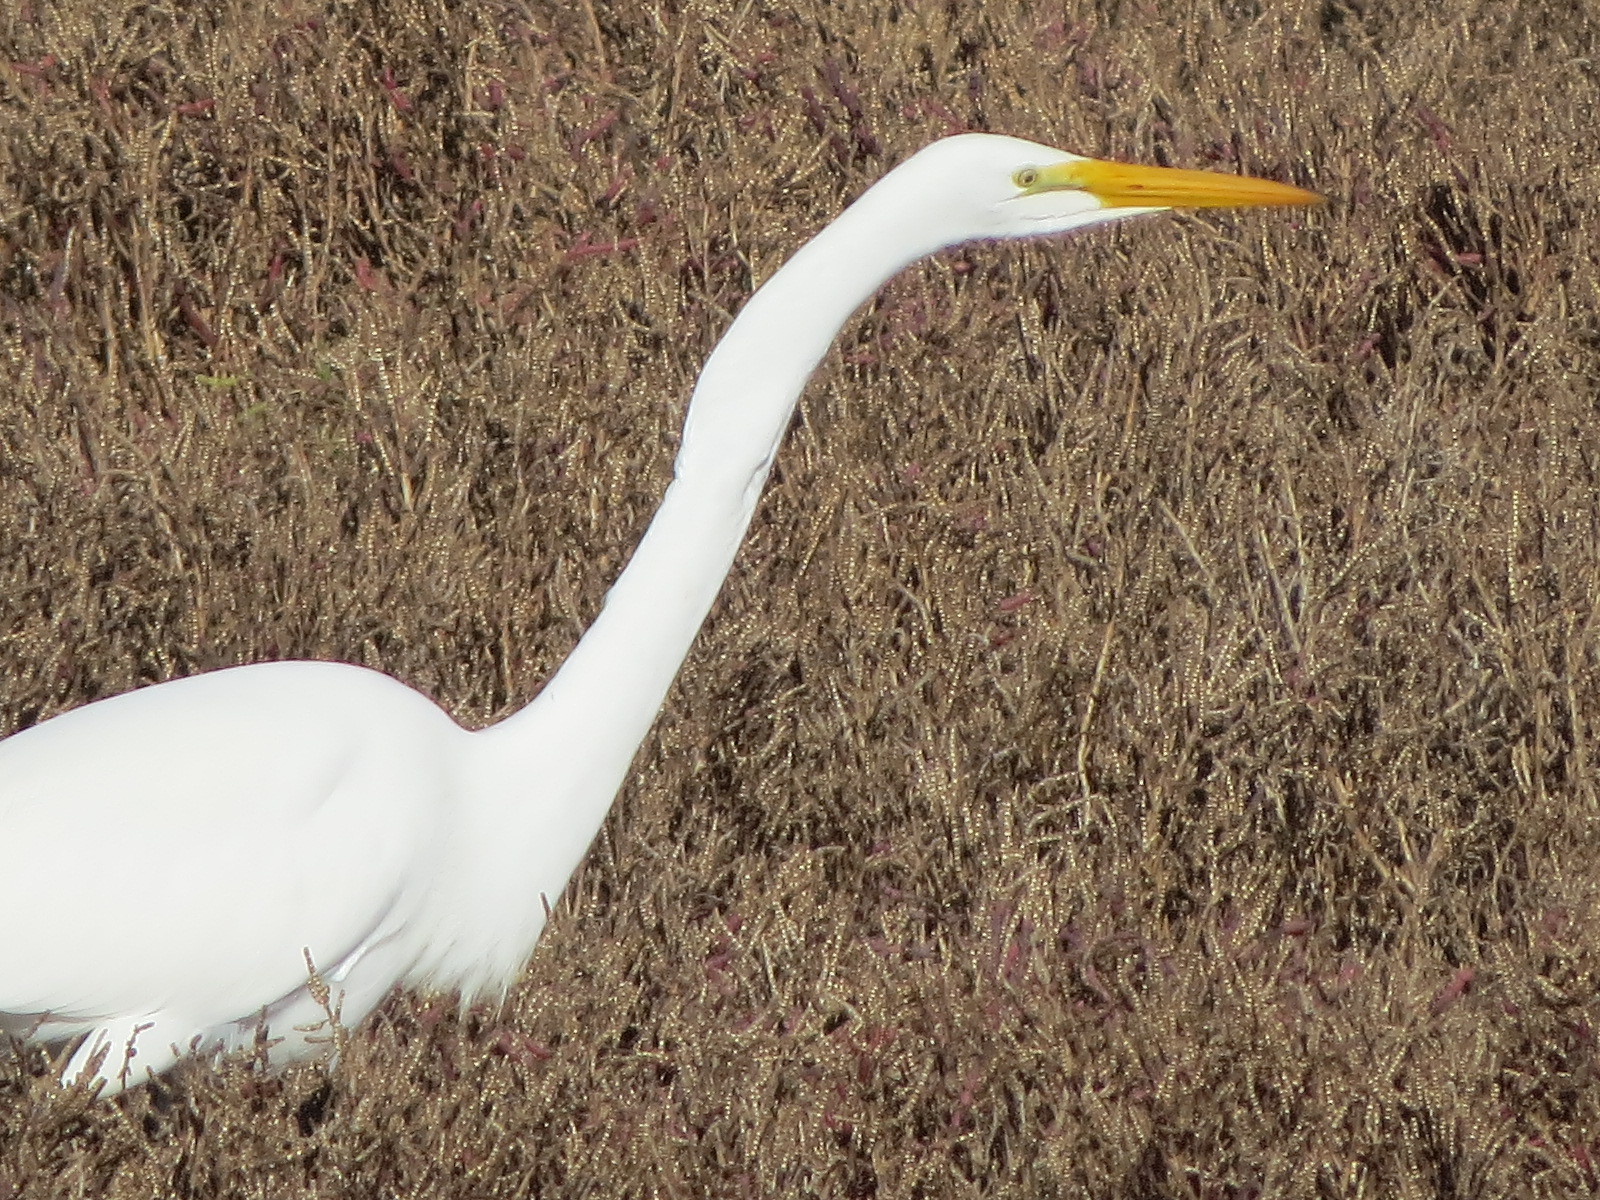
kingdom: Animalia
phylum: Chordata
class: Aves
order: Pelecaniformes
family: Ardeidae
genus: Ardea
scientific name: Ardea alba
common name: Great egret
